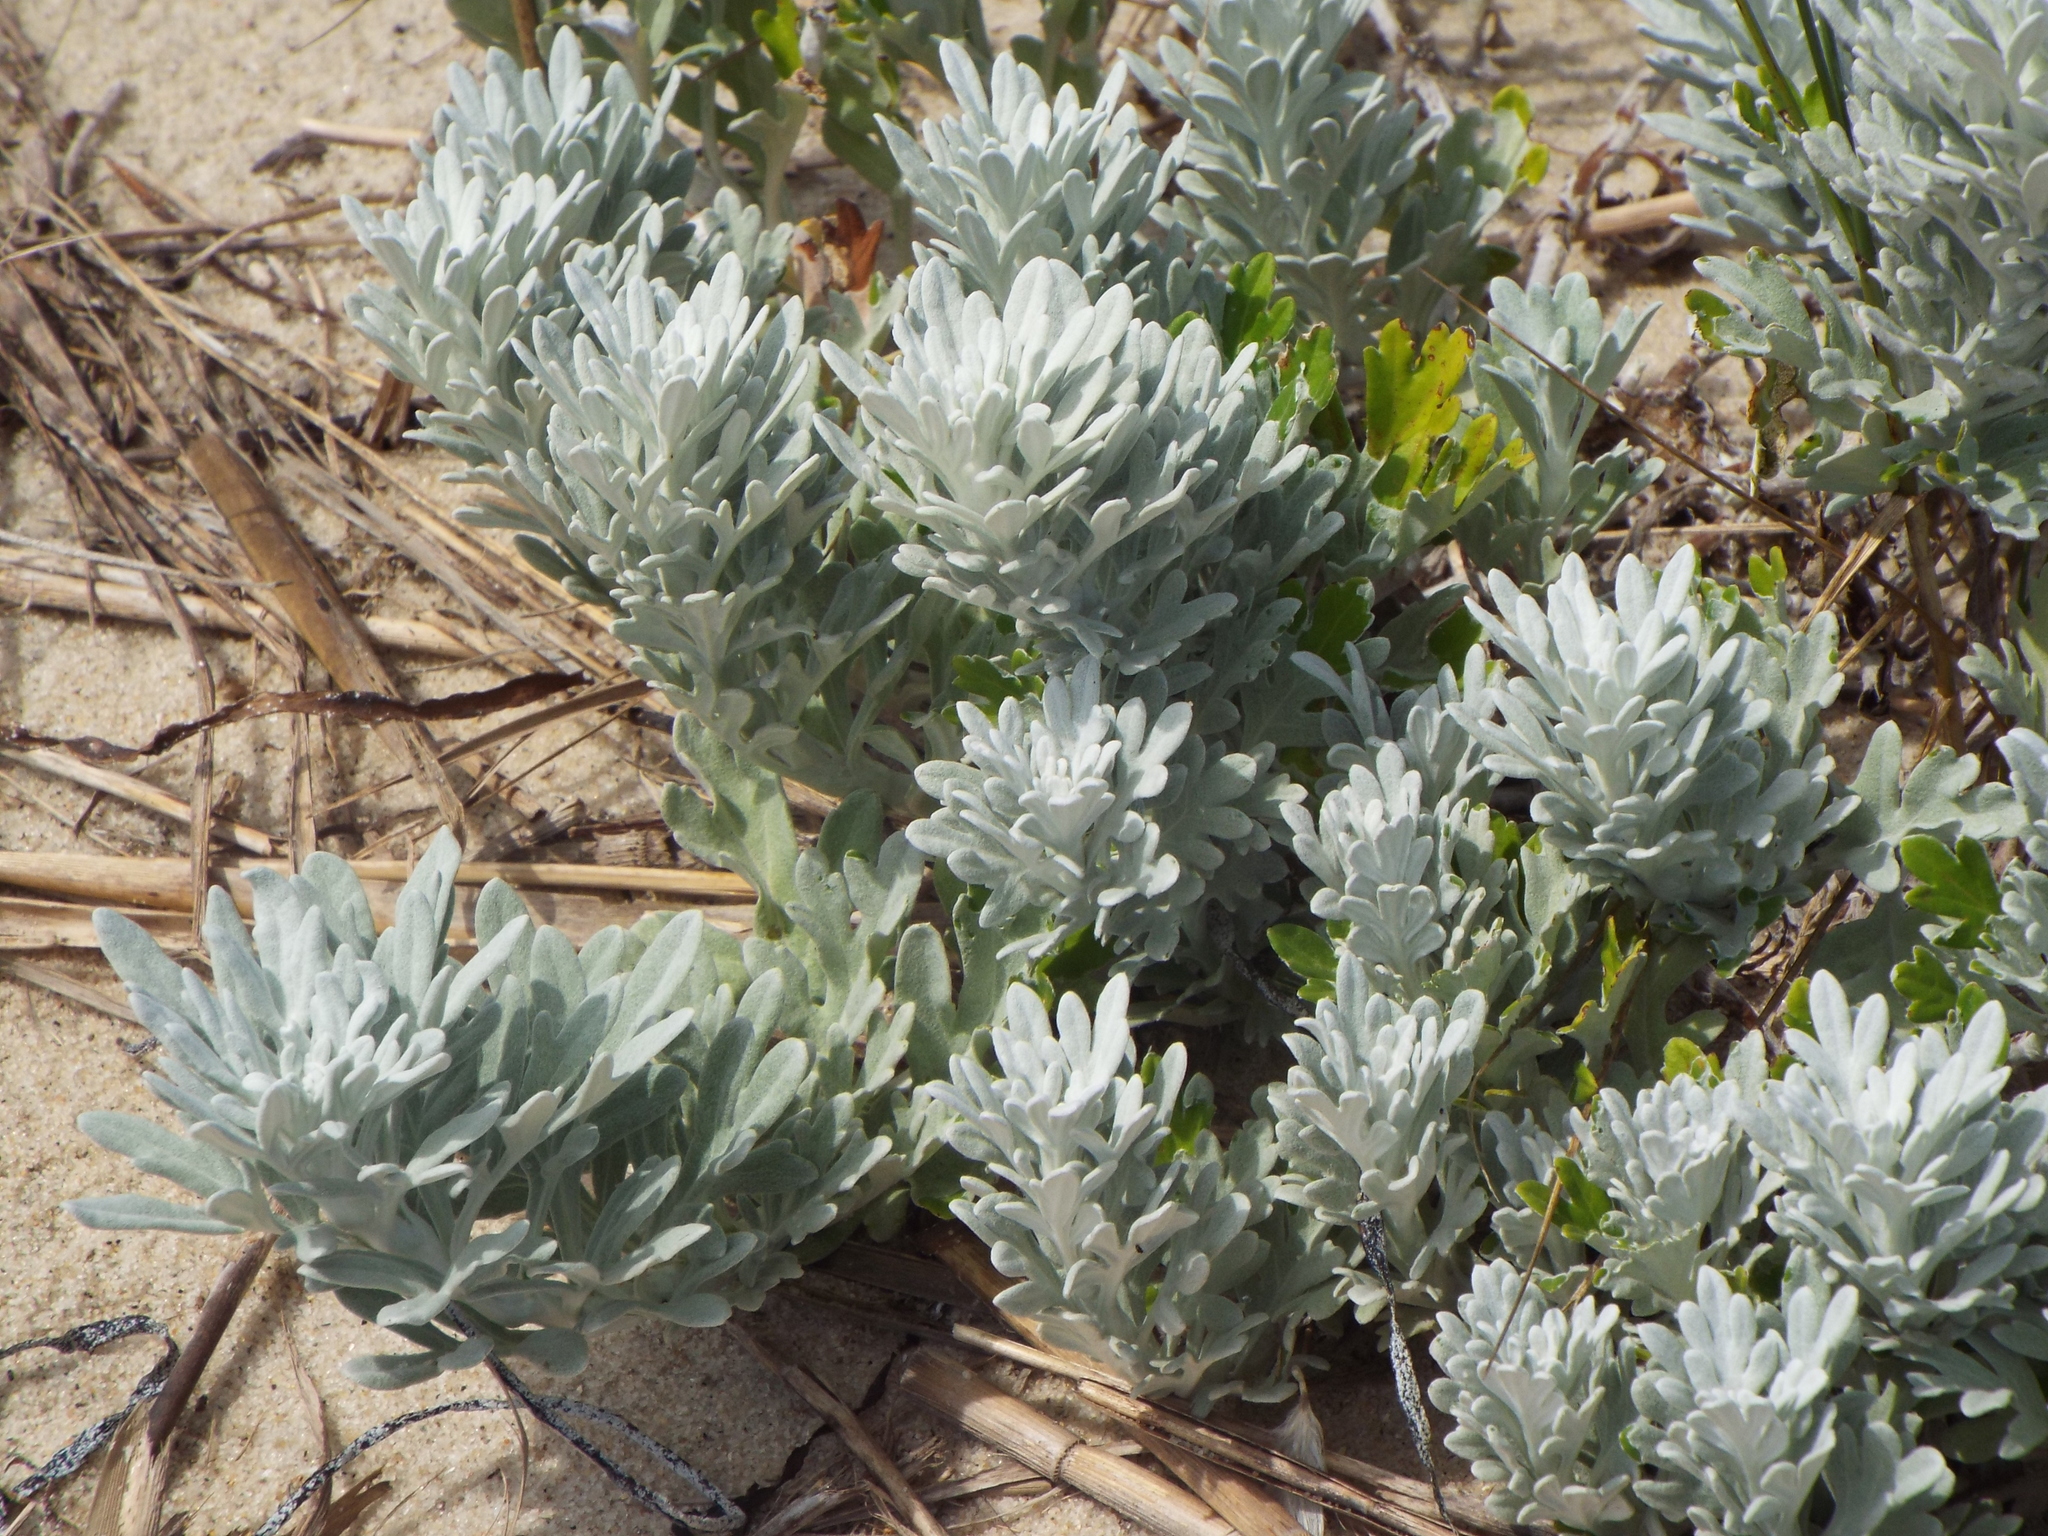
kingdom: Plantae
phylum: Tracheophyta
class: Magnoliopsida
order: Asterales
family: Asteraceae
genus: Artemisia
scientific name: Artemisia stelleriana
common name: Beach wormwood
